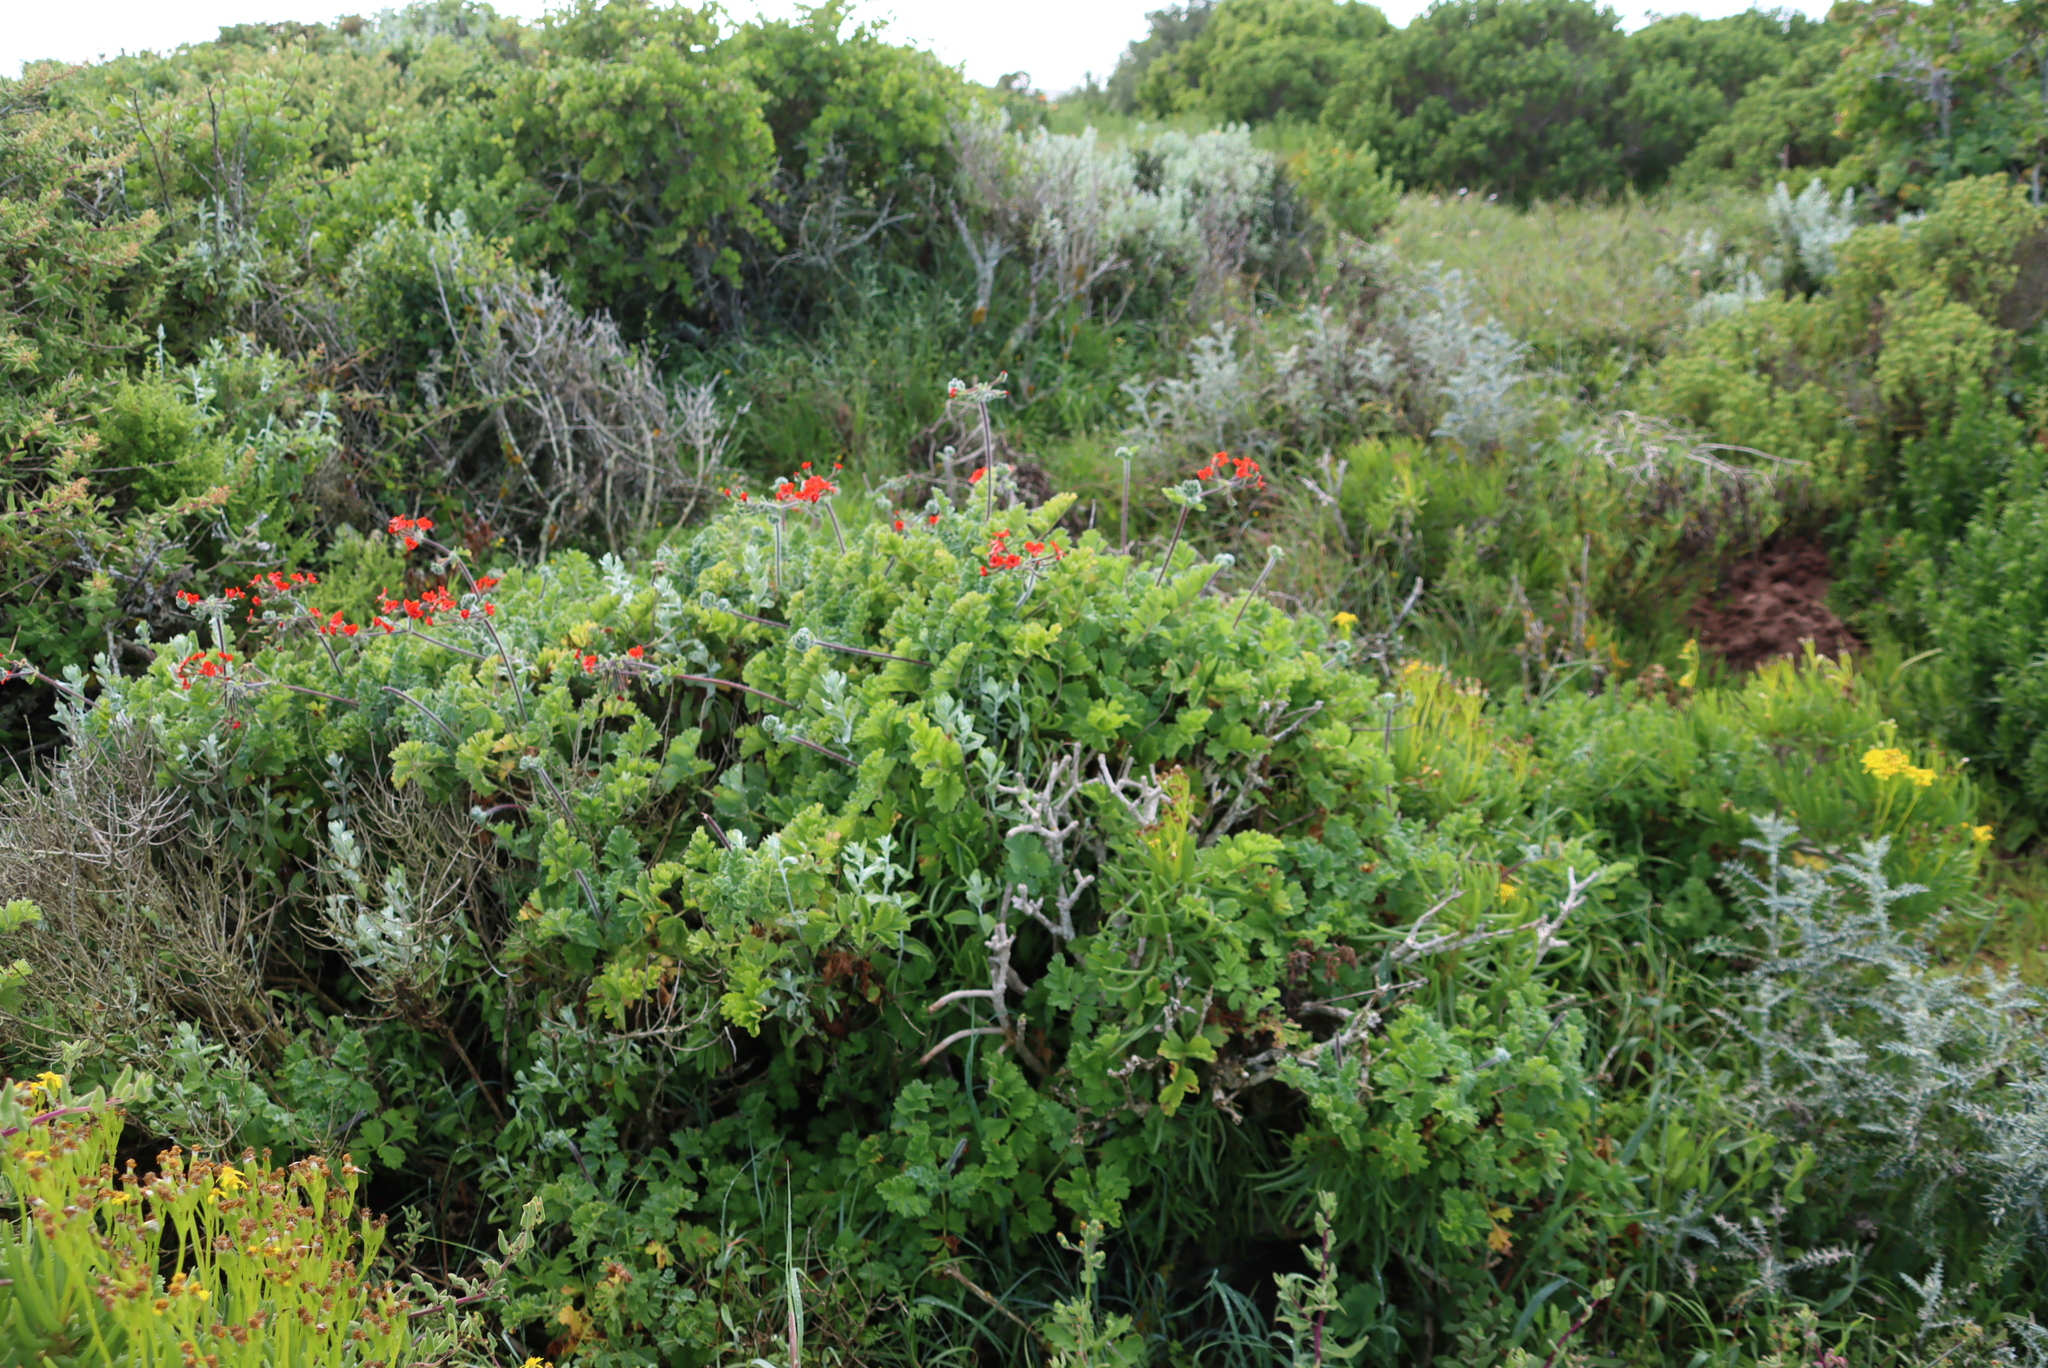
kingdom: Plantae
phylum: Tracheophyta
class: Magnoliopsida
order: Geraniales
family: Geraniaceae
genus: Pelargonium
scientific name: Pelargonium fulgidum
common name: Celandine-leaf pelargonium
